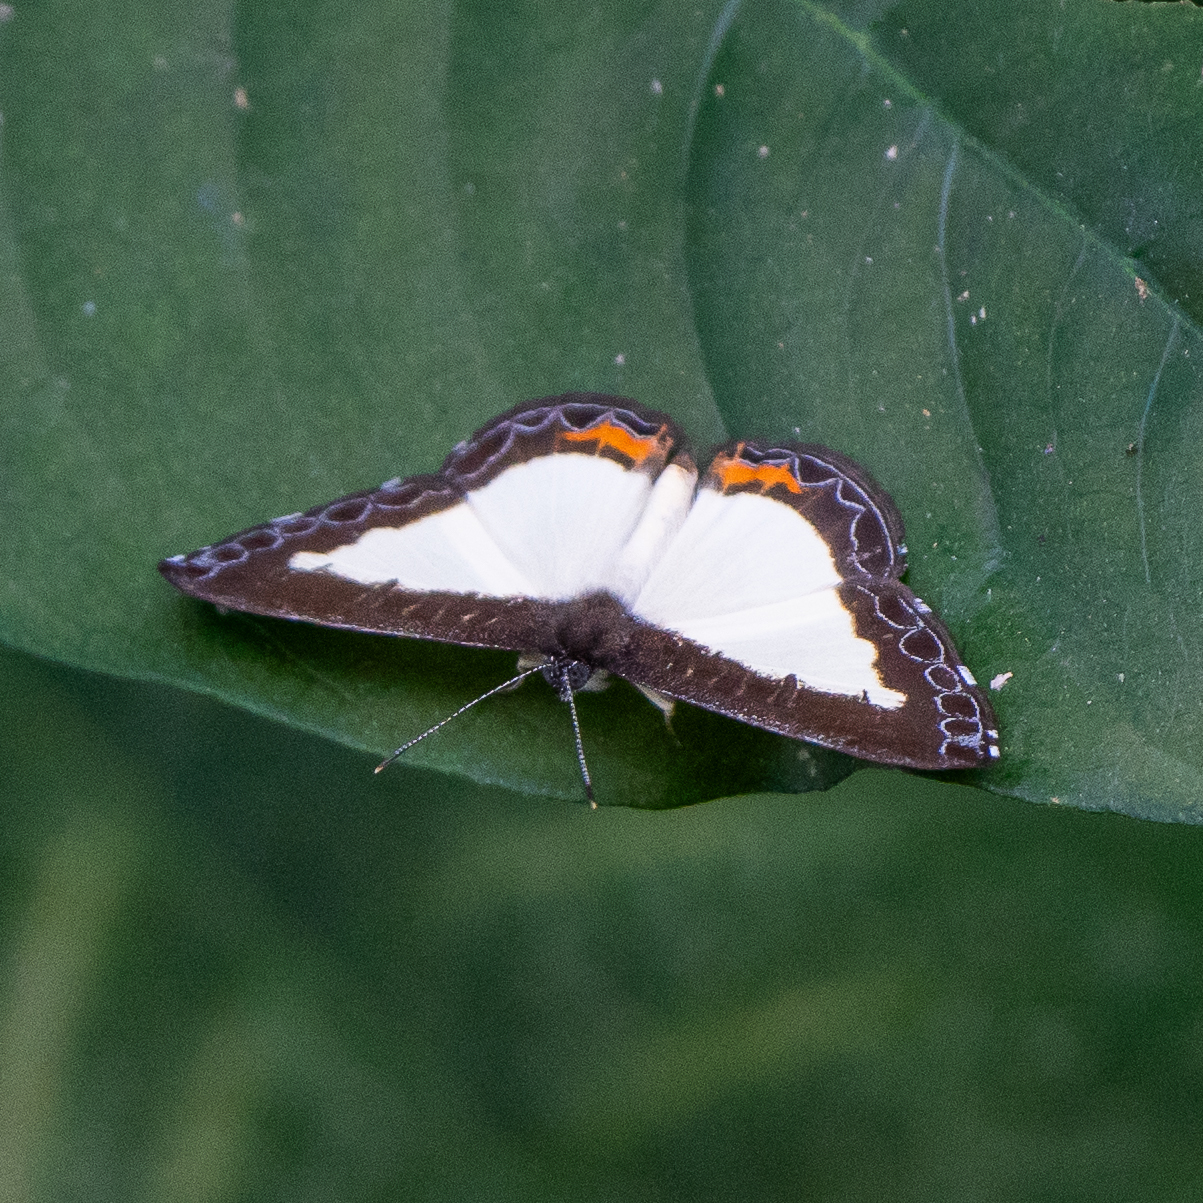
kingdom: Animalia
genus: Nymphidium
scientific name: Nymphidium cachrus
